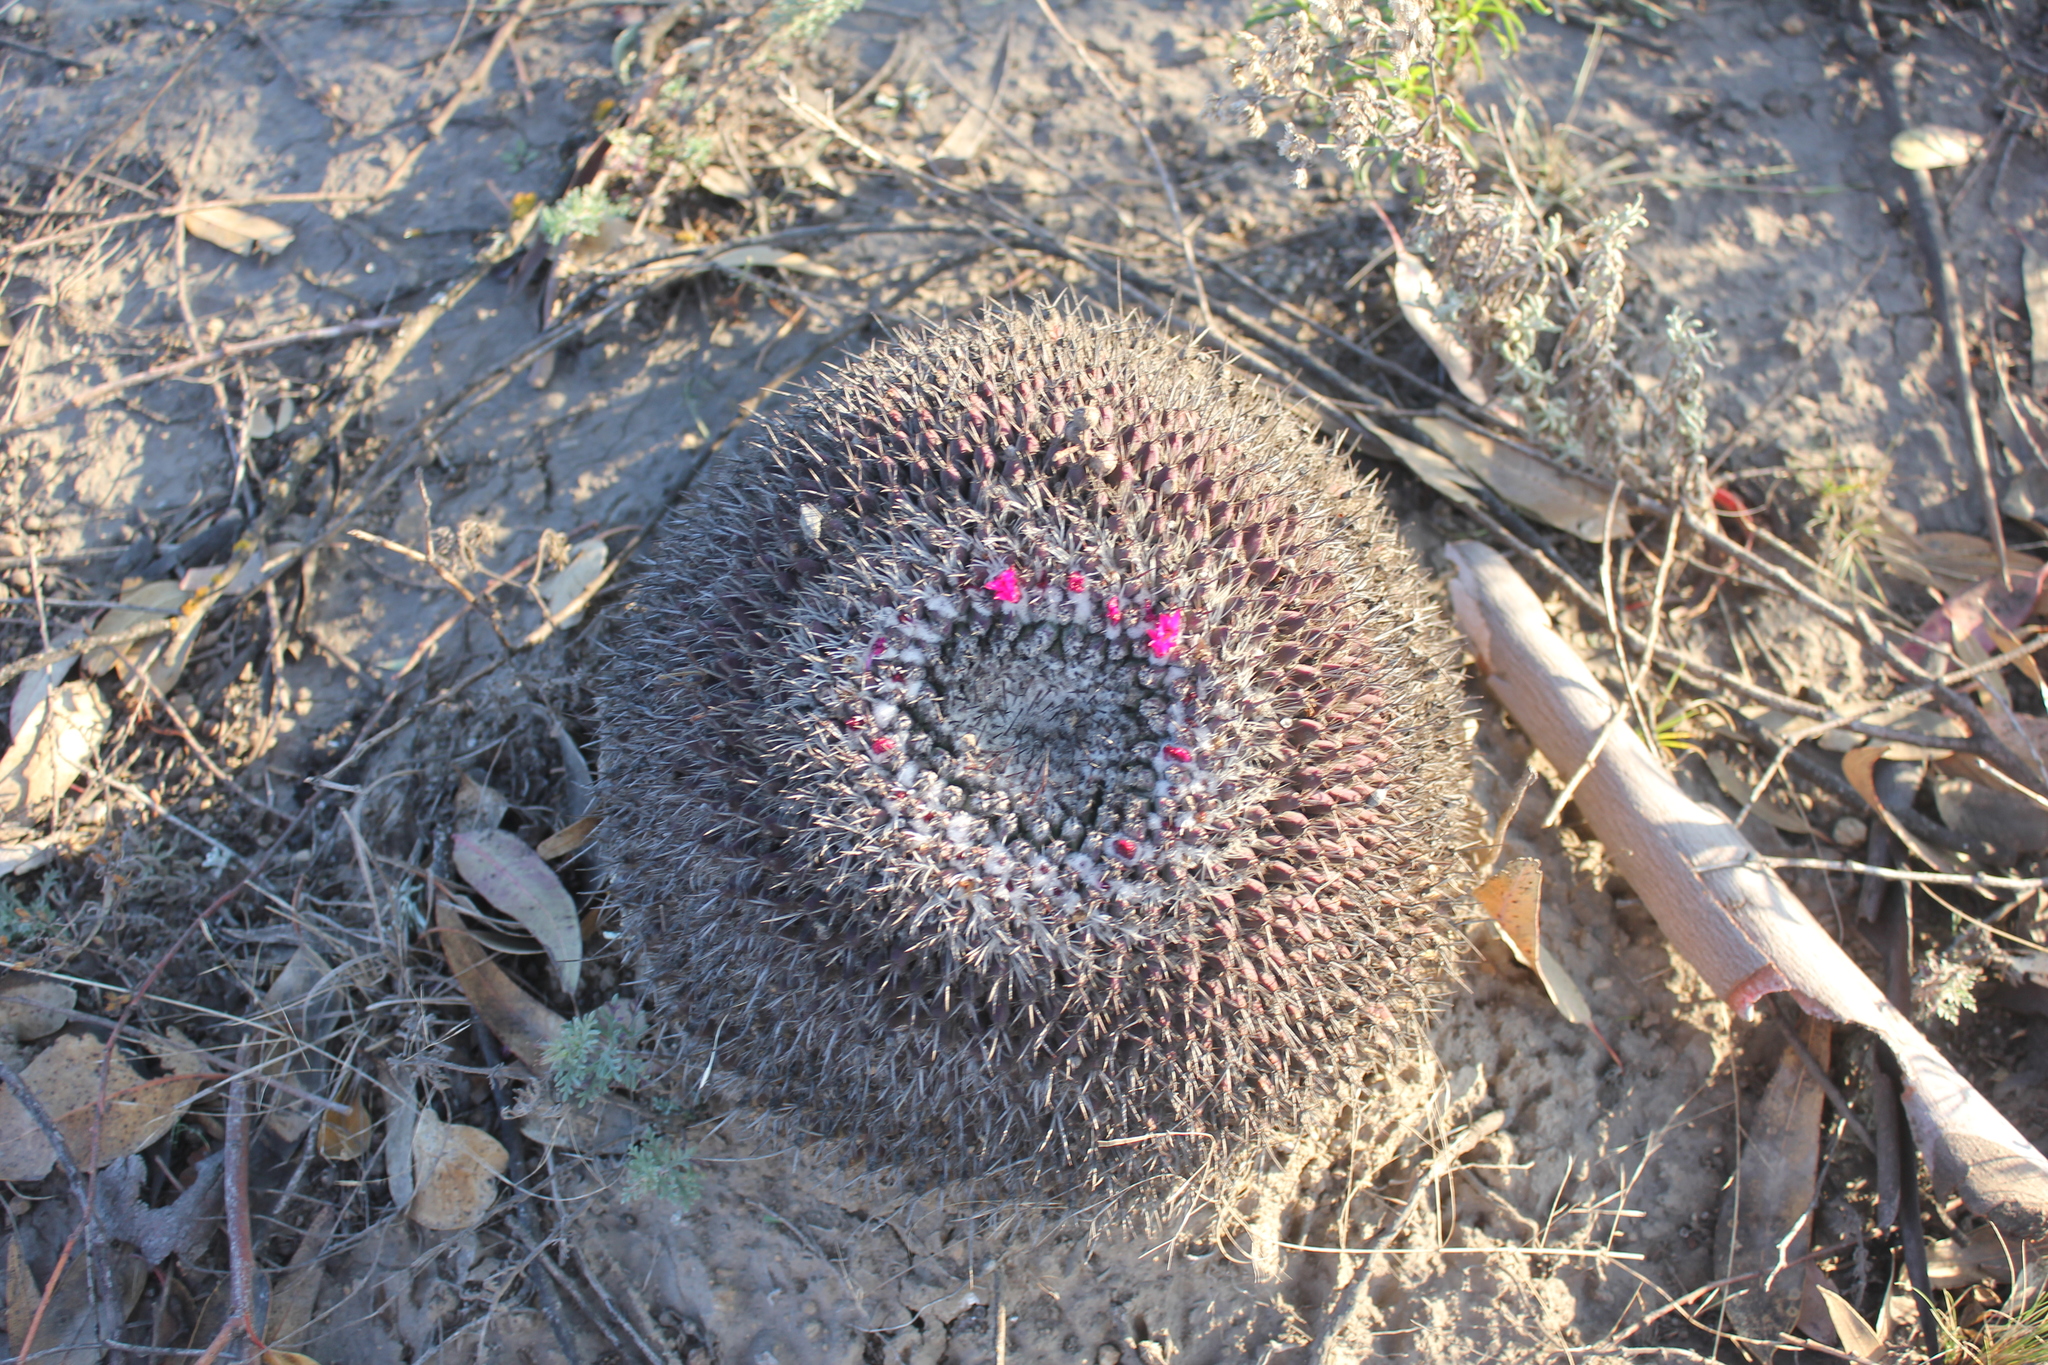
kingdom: Plantae
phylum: Tracheophyta
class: Magnoliopsida
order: Caryophyllales
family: Cactaceae
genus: Mammillaria
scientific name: Mammillaria mystax
